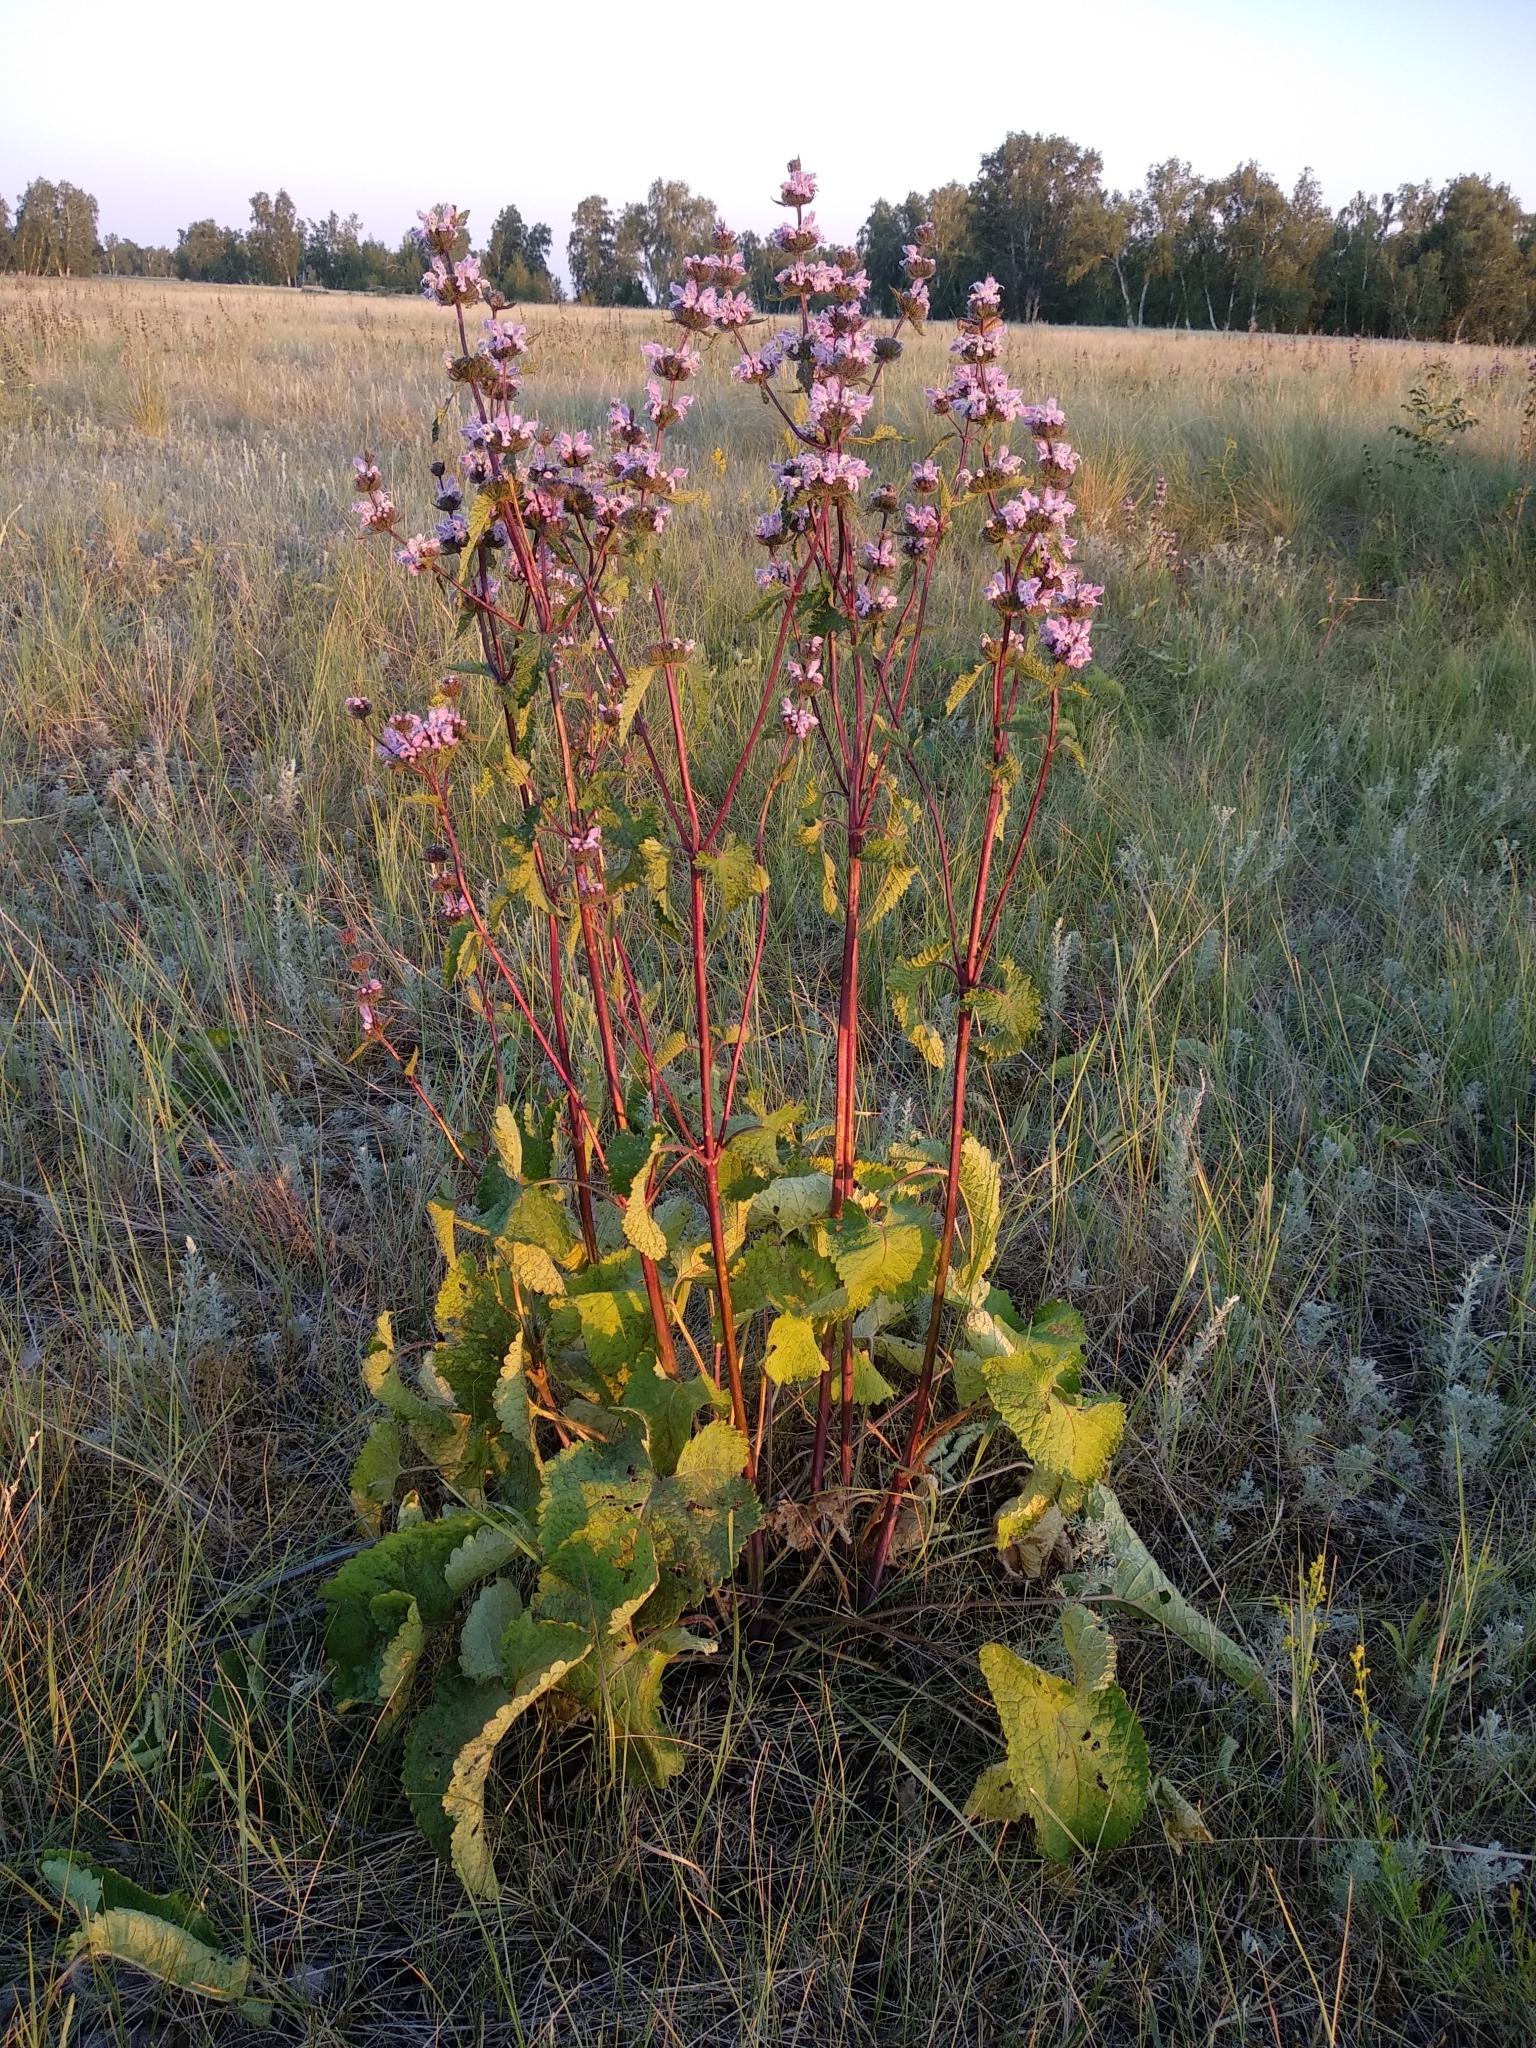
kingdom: Plantae
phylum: Tracheophyta
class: Magnoliopsida
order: Lamiales
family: Lamiaceae
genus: Phlomoides
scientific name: Phlomoides tuberosa
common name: Tuberous jerusalem sage
